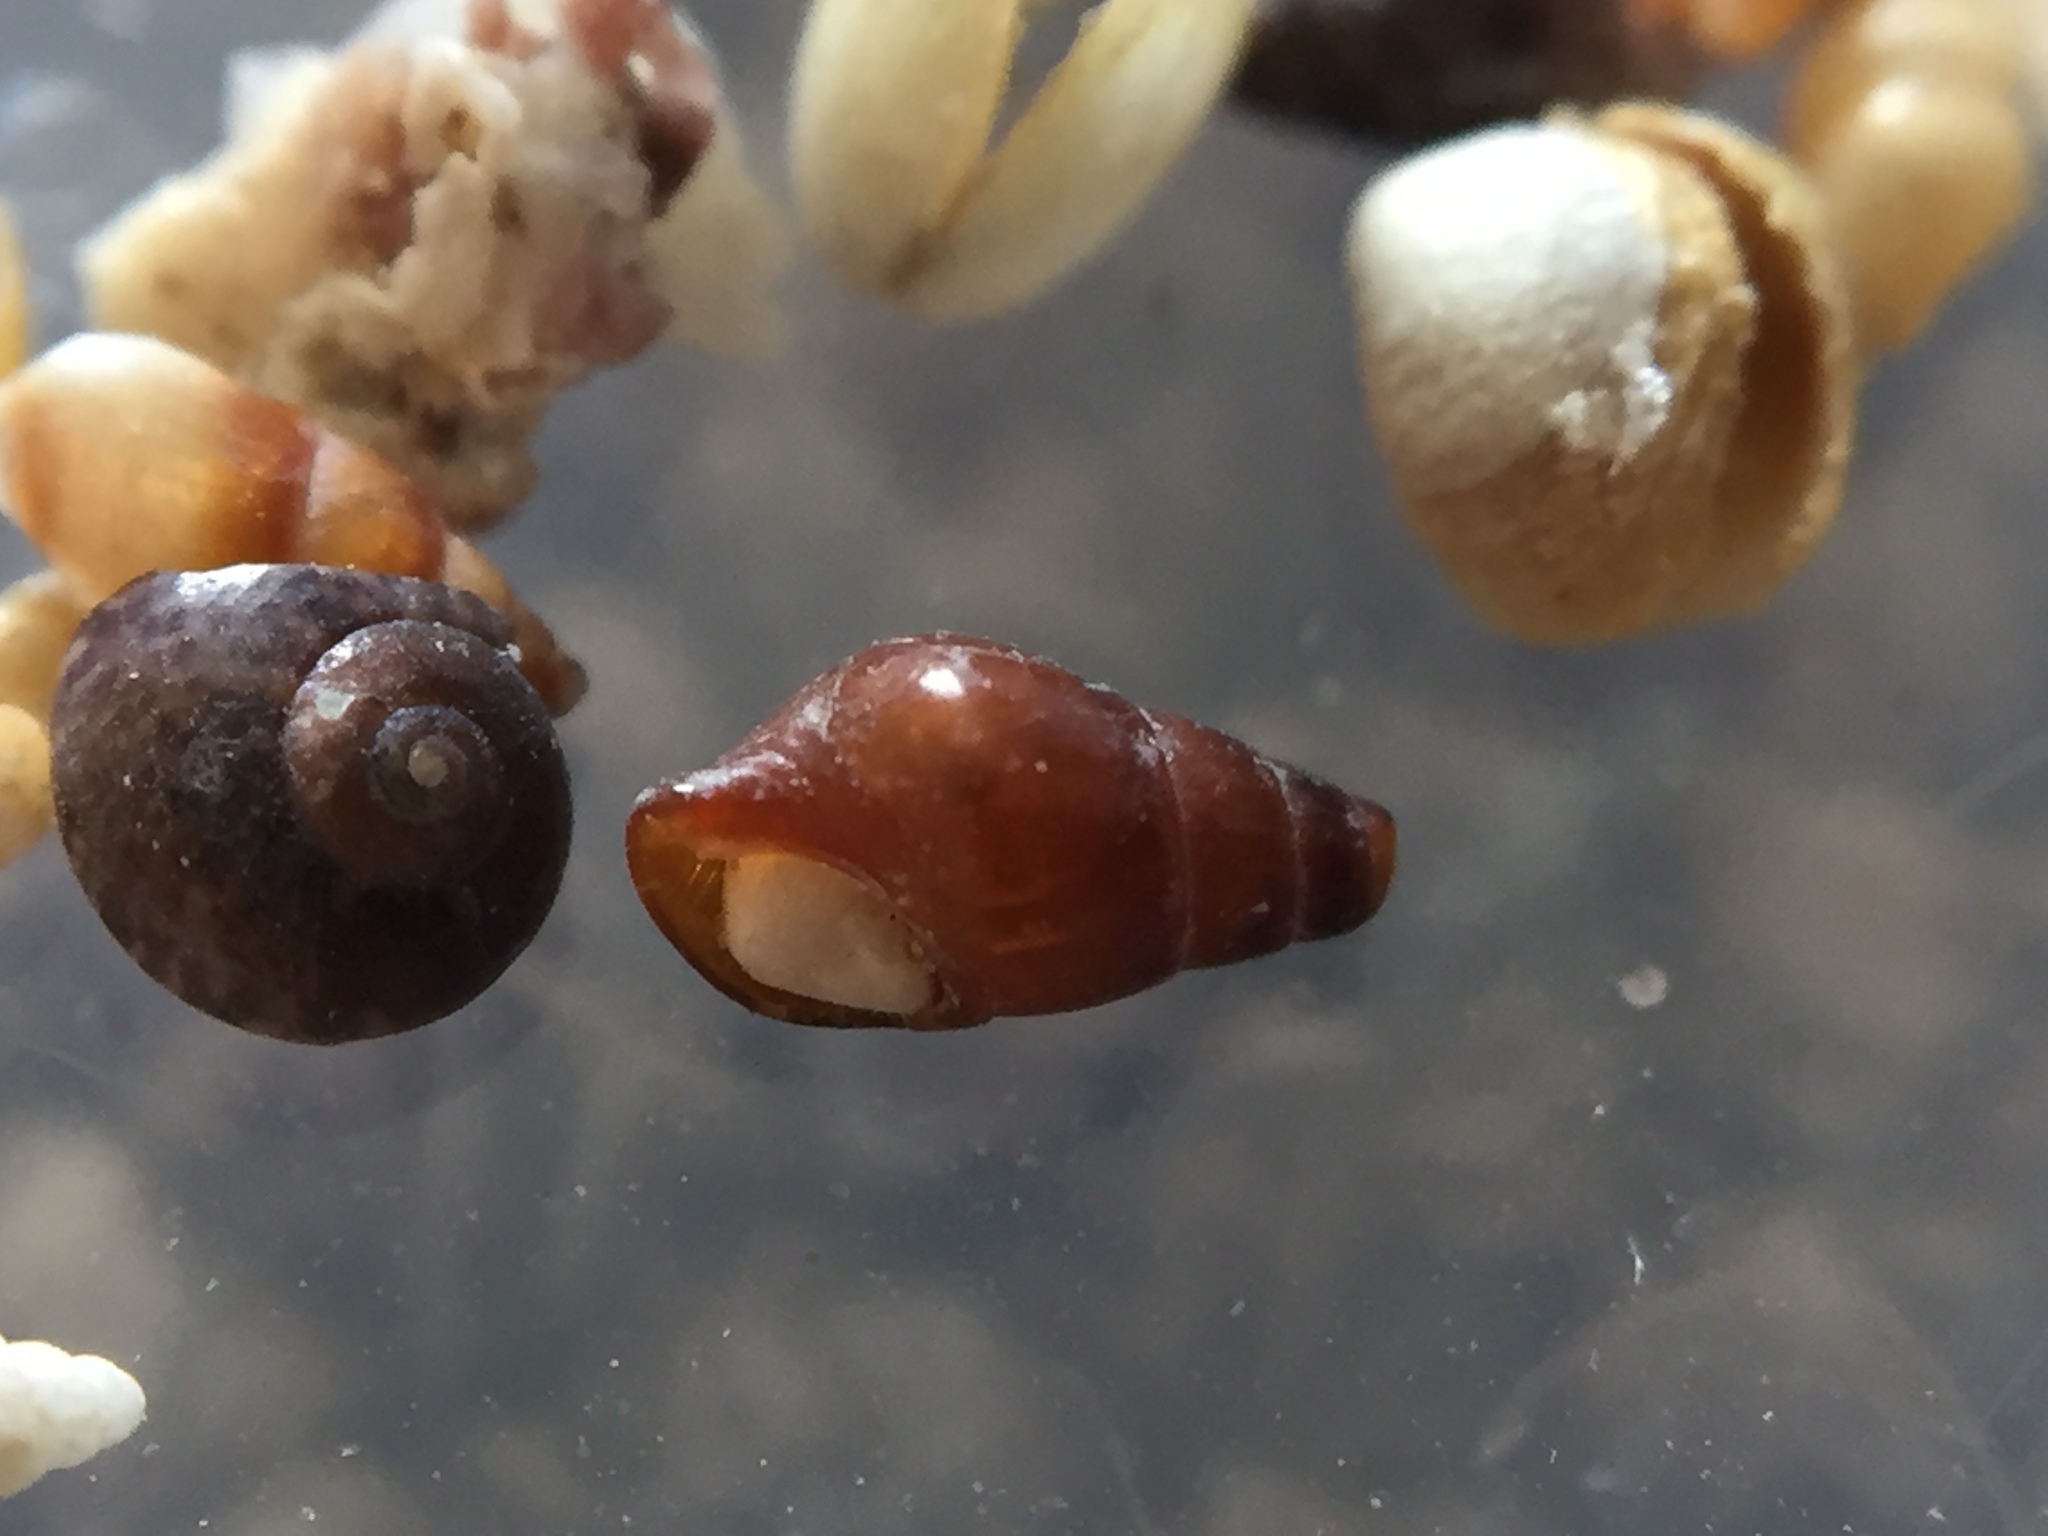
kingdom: Animalia
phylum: Mollusca
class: Gastropoda
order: Neogastropoda
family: Columbellidae
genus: Paxula
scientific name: Paxula paxillus
